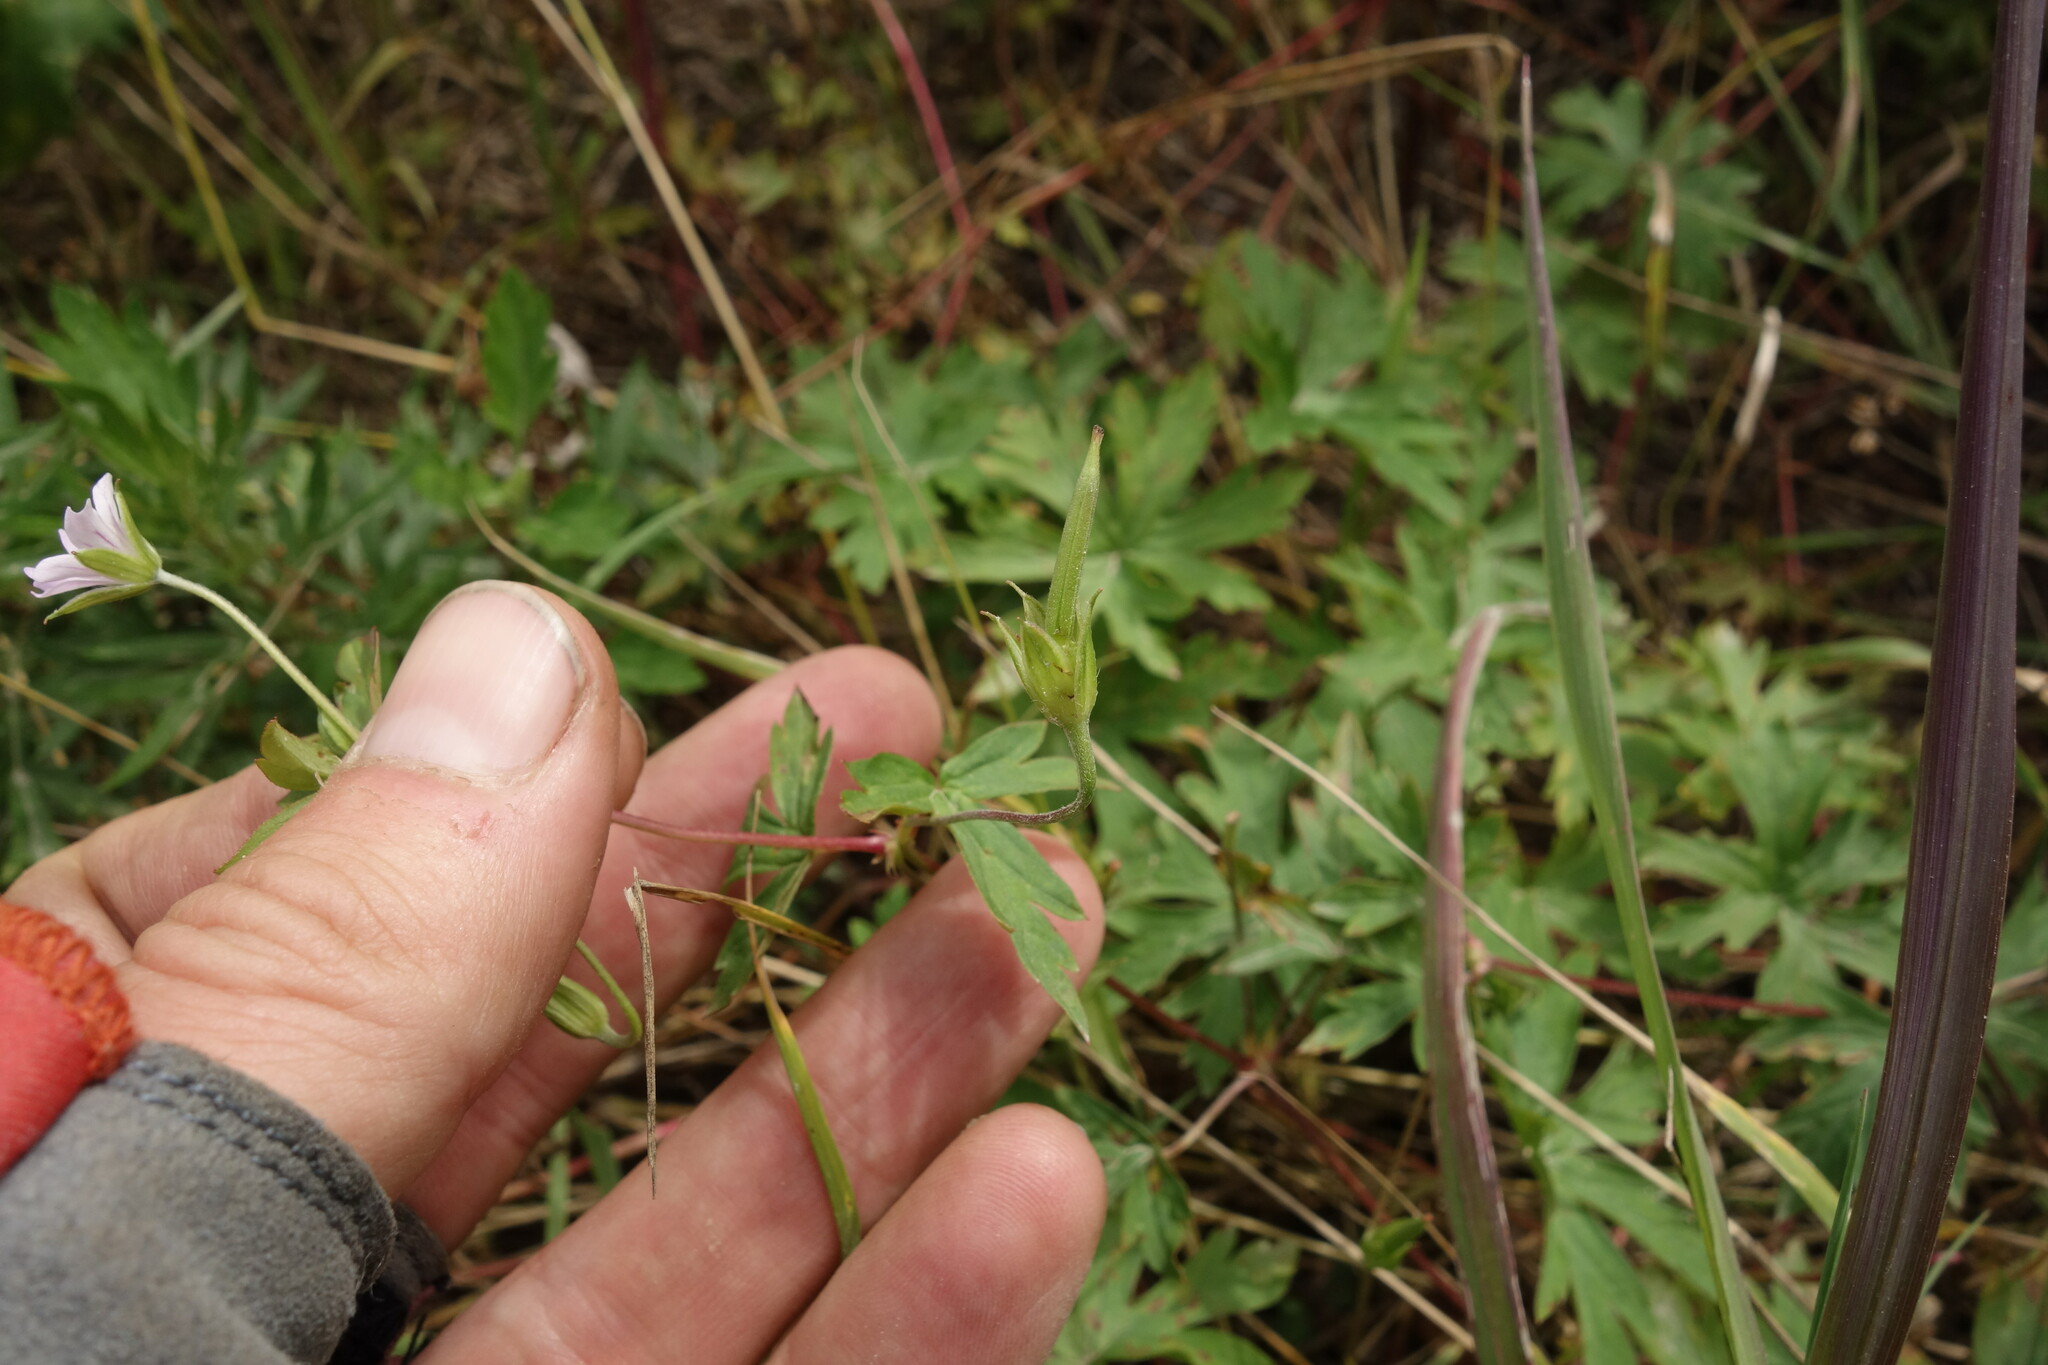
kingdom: Plantae
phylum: Tracheophyta
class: Magnoliopsida
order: Geraniales
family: Geraniaceae
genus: Geranium
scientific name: Geranium sibiricum
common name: Siberian crane's-bill
